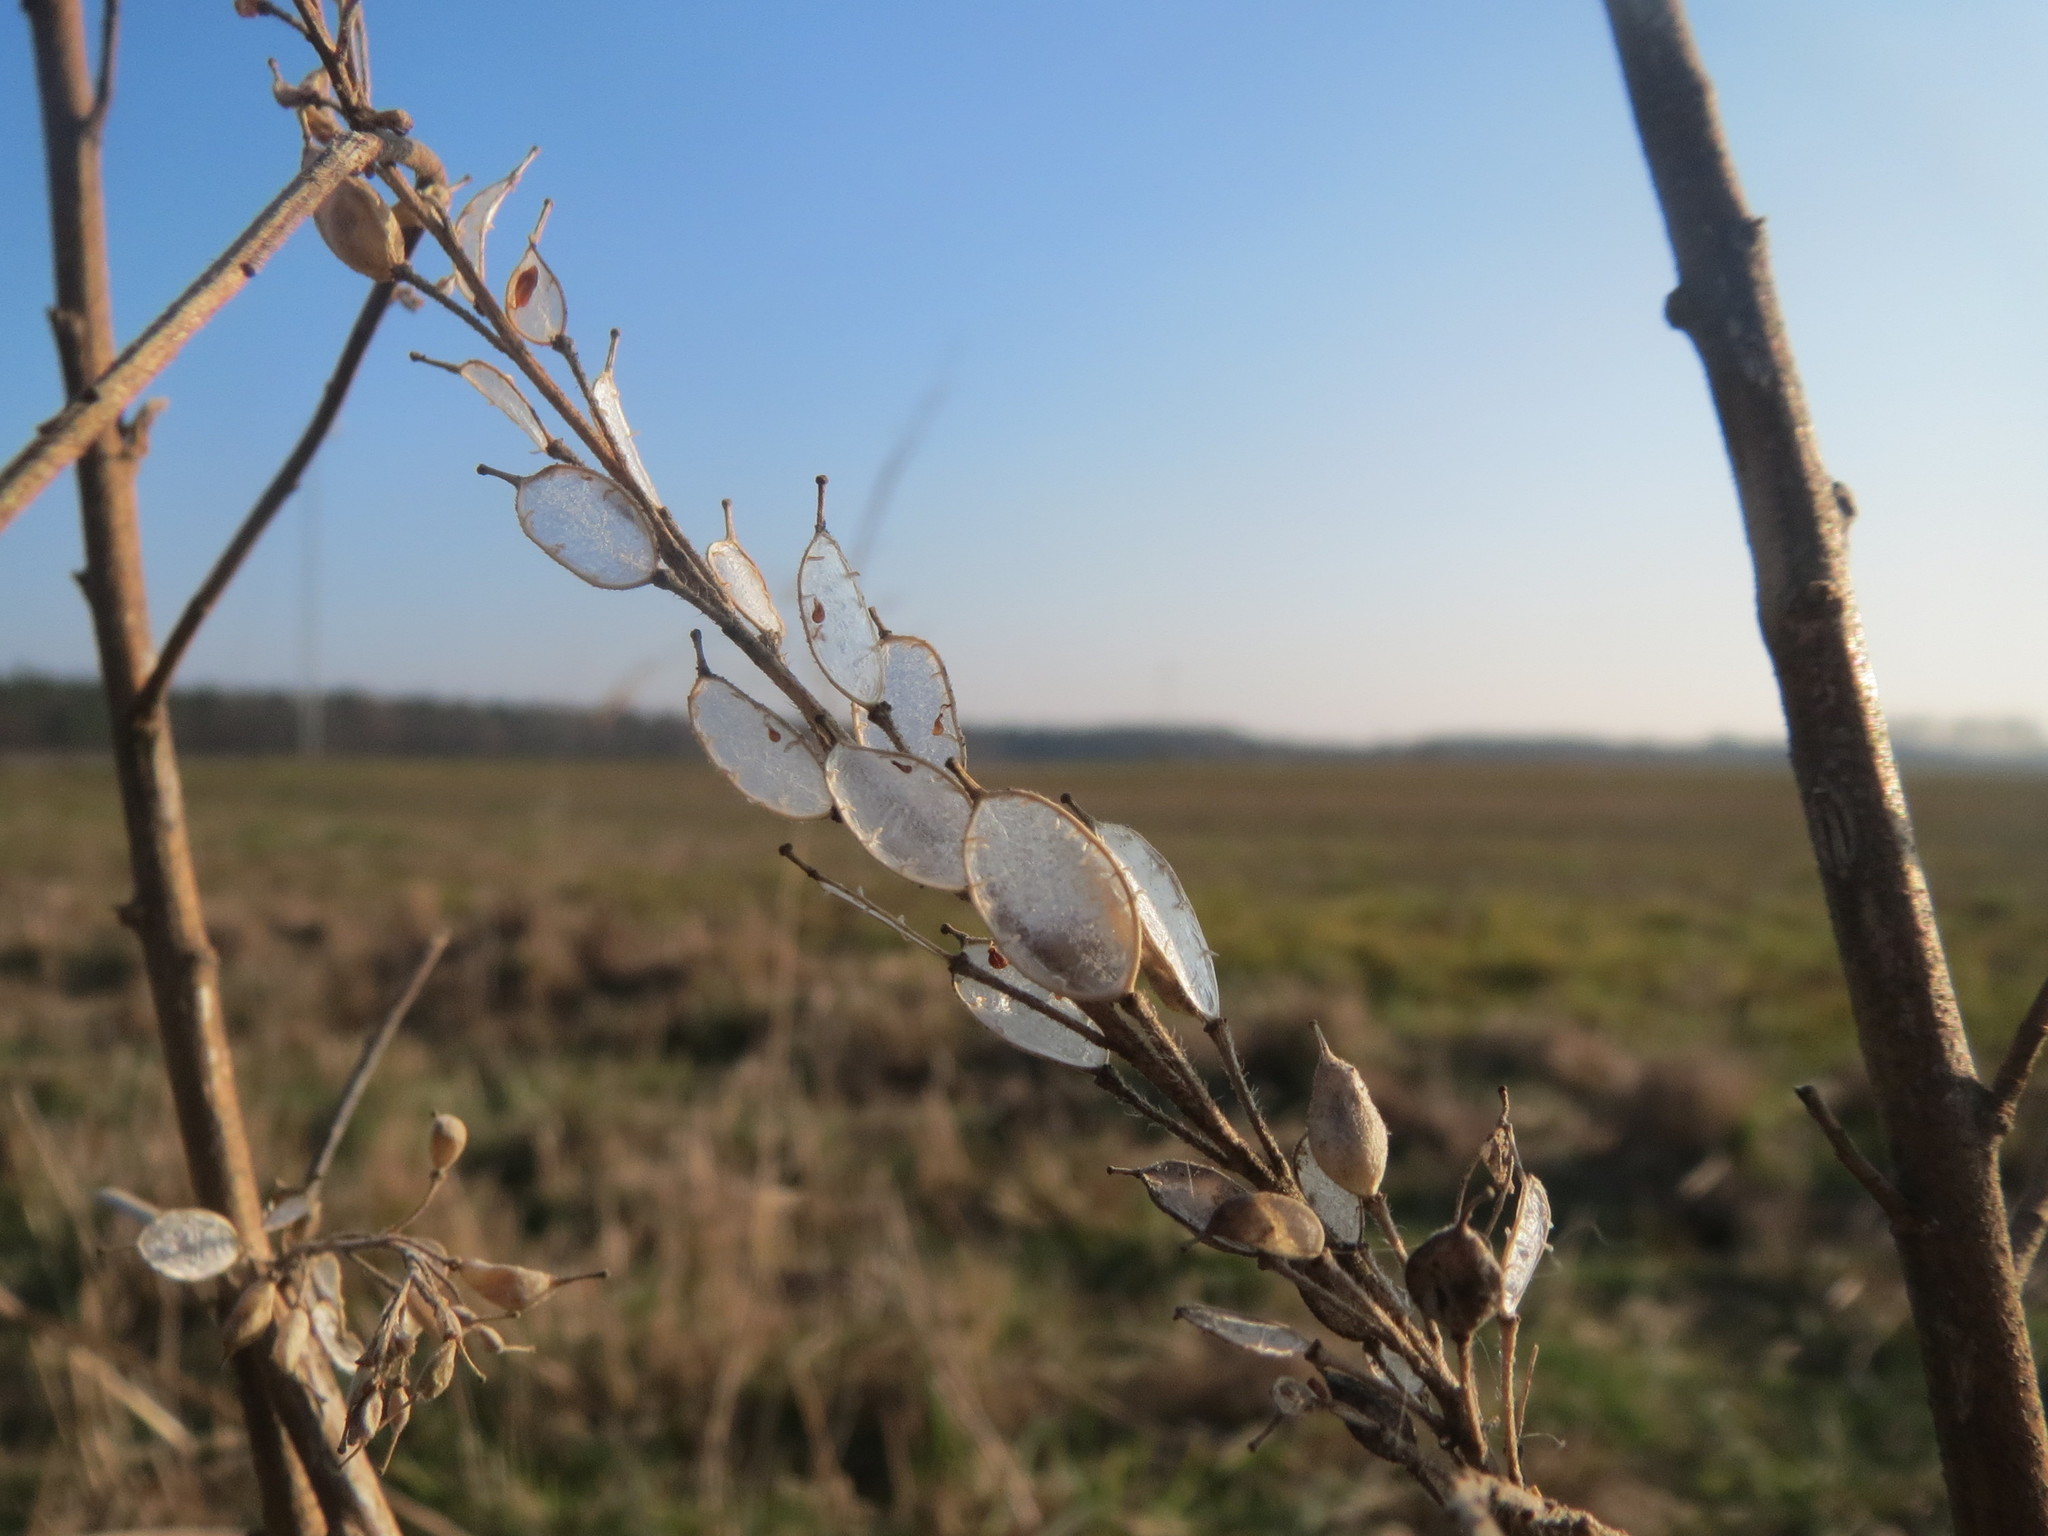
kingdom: Plantae
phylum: Tracheophyta
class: Magnoliopsida
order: Brassicales
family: Brassicaceae
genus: Berteroa
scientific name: Berteroa incana
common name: Hoary alison
